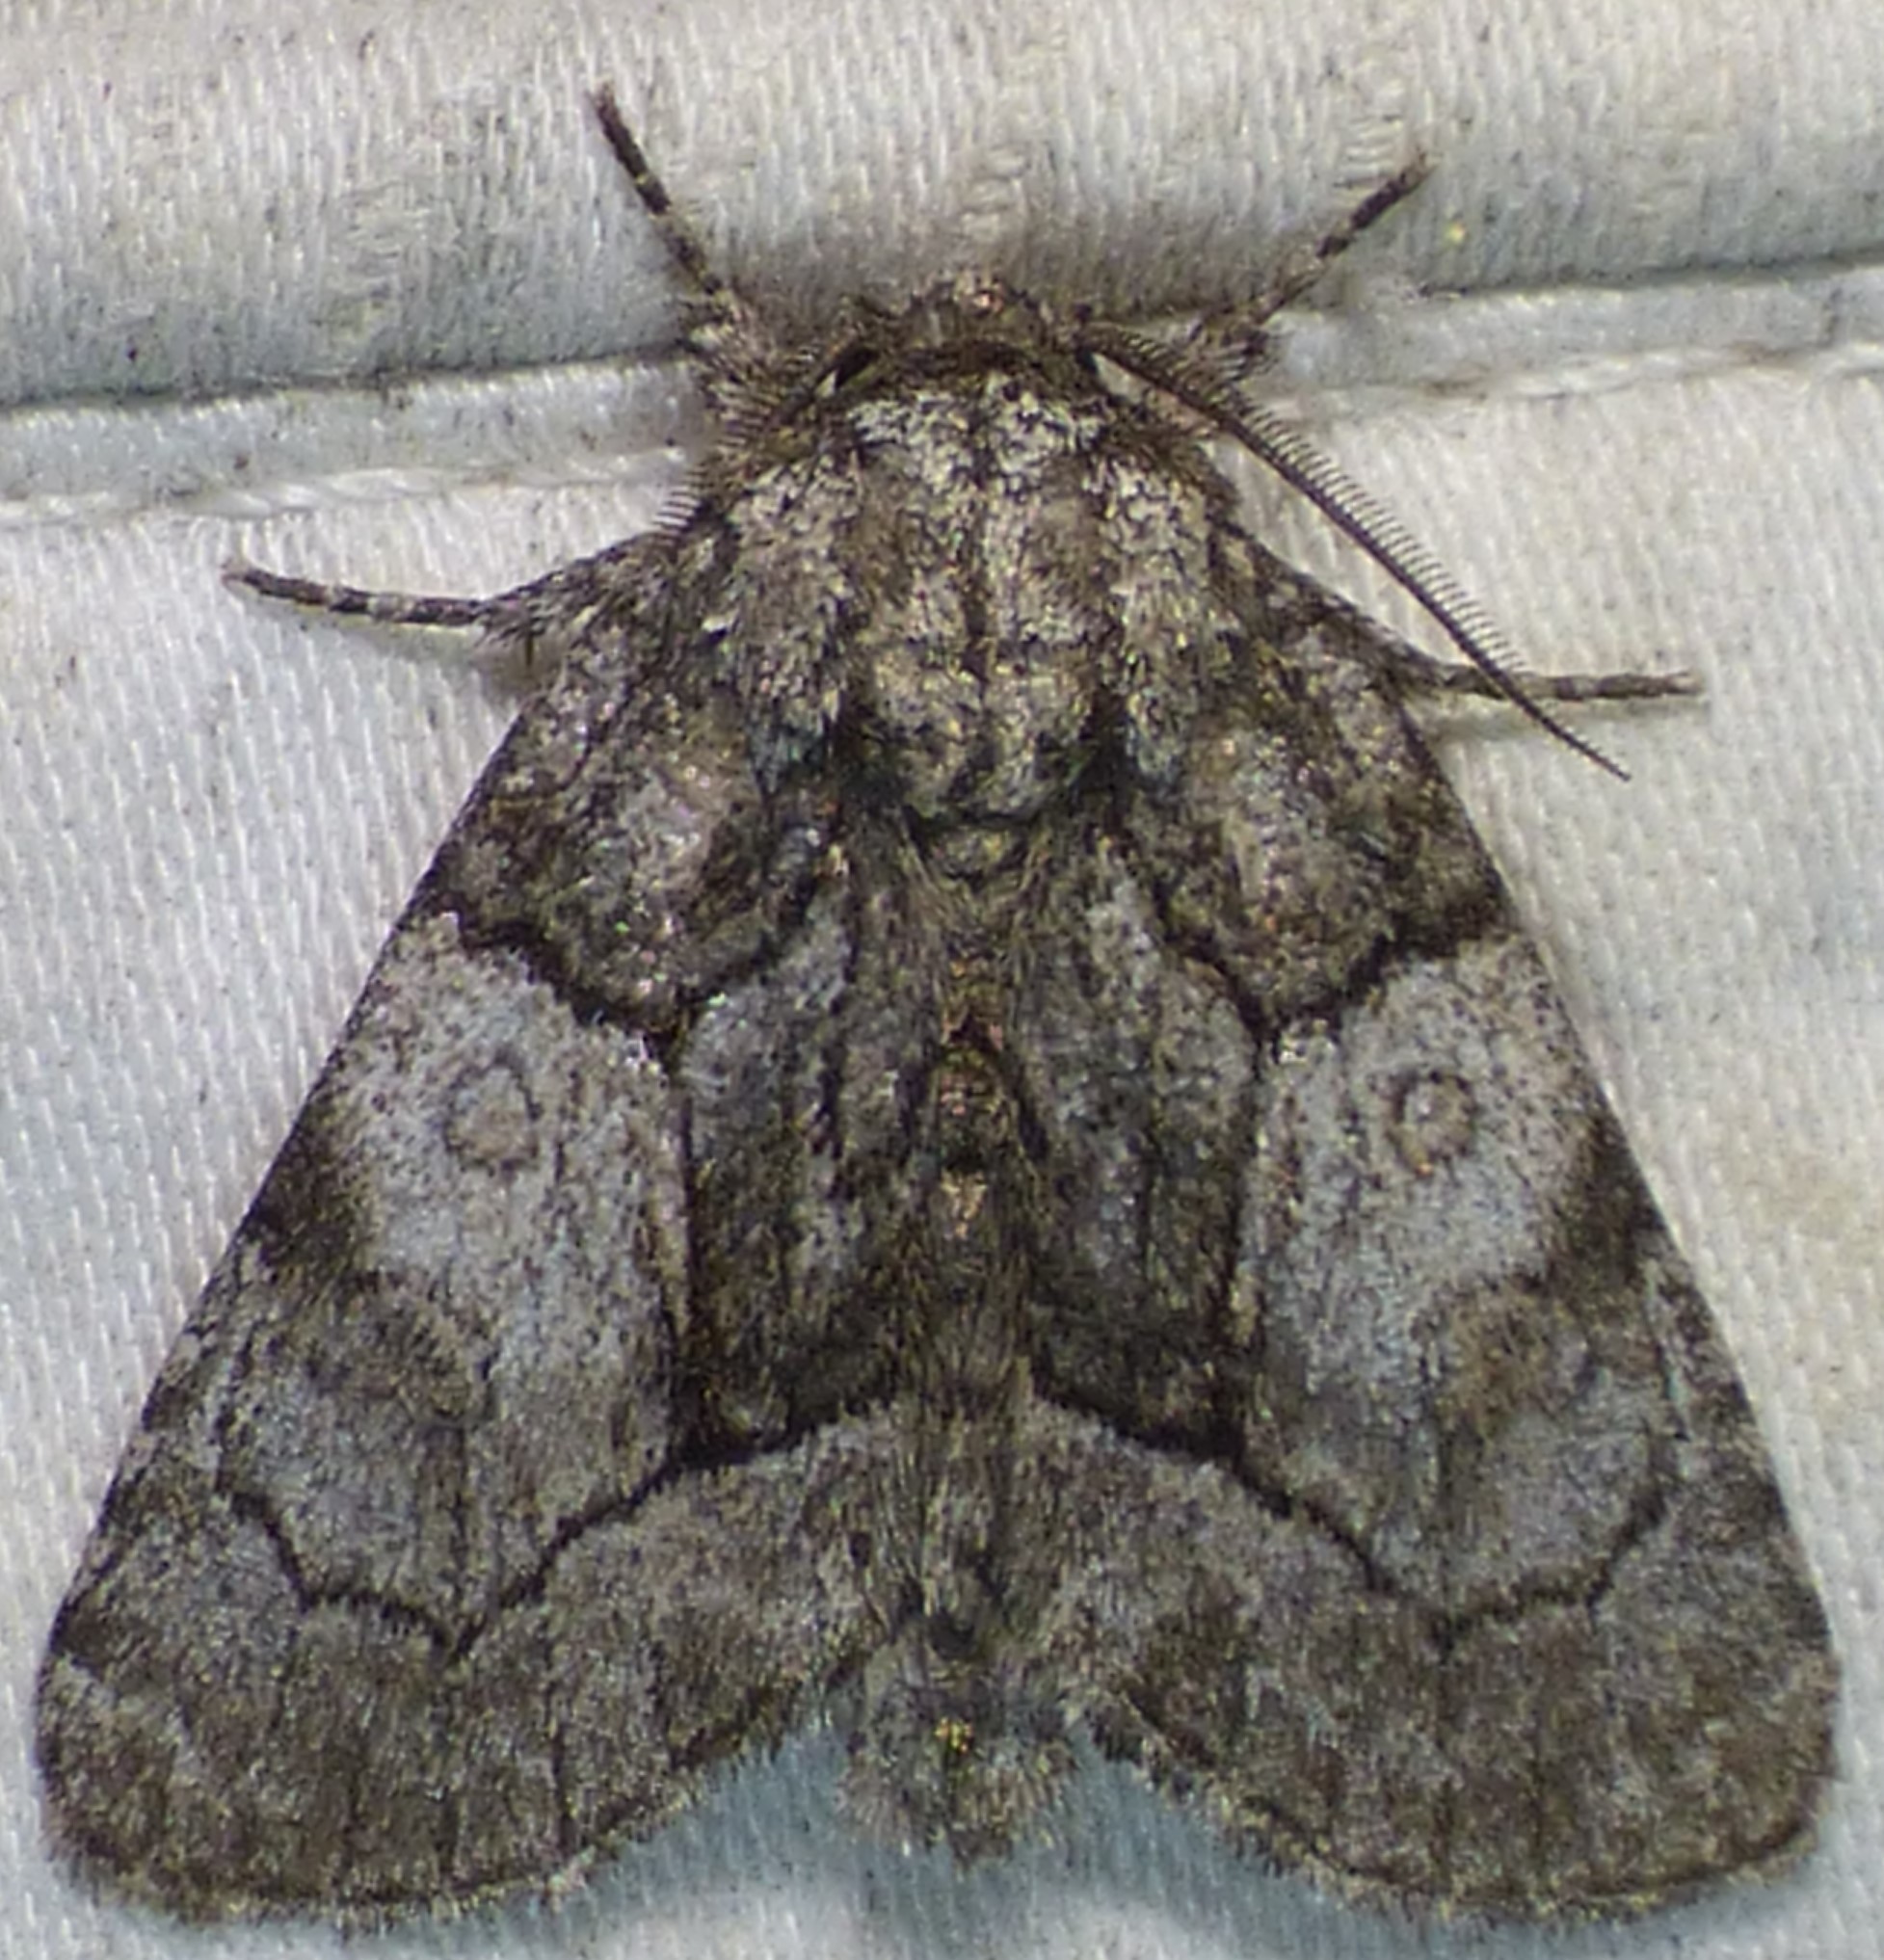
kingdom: Animalia
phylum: Arthropoda
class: Insecta
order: Lepidoptera
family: Noctuidae
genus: Raphia
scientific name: Raphia frater
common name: Brother
